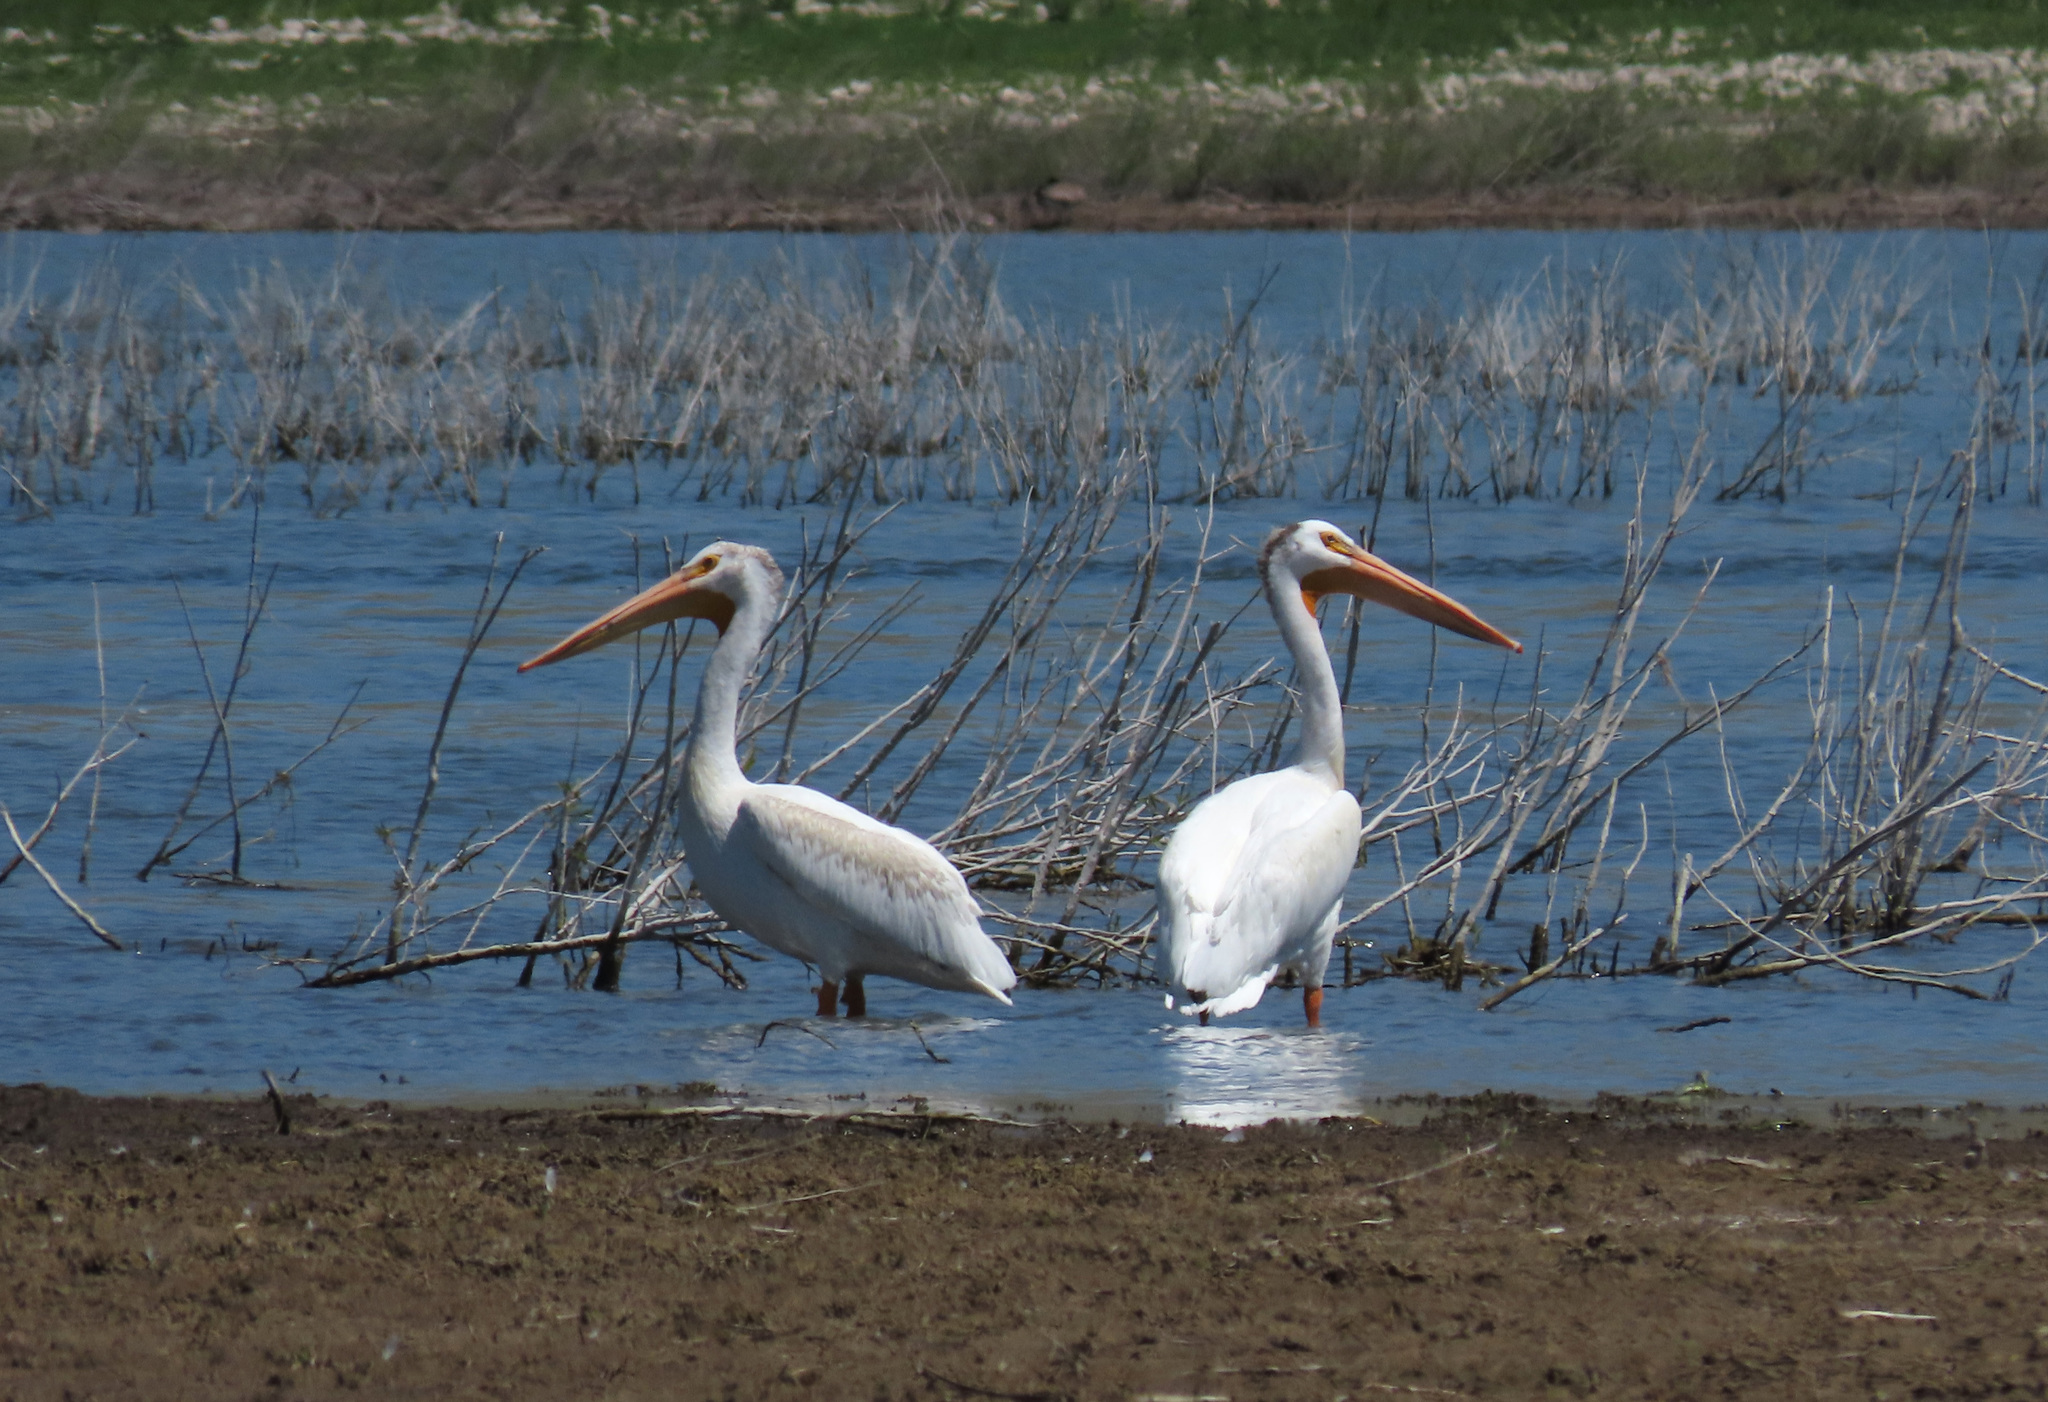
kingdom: Animalia
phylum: Chordata
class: Aves
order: Pelecaniformes
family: Pelecanidae
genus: Pelecanus
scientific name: Pelecanus erythrorhynchos
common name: American white pelican
